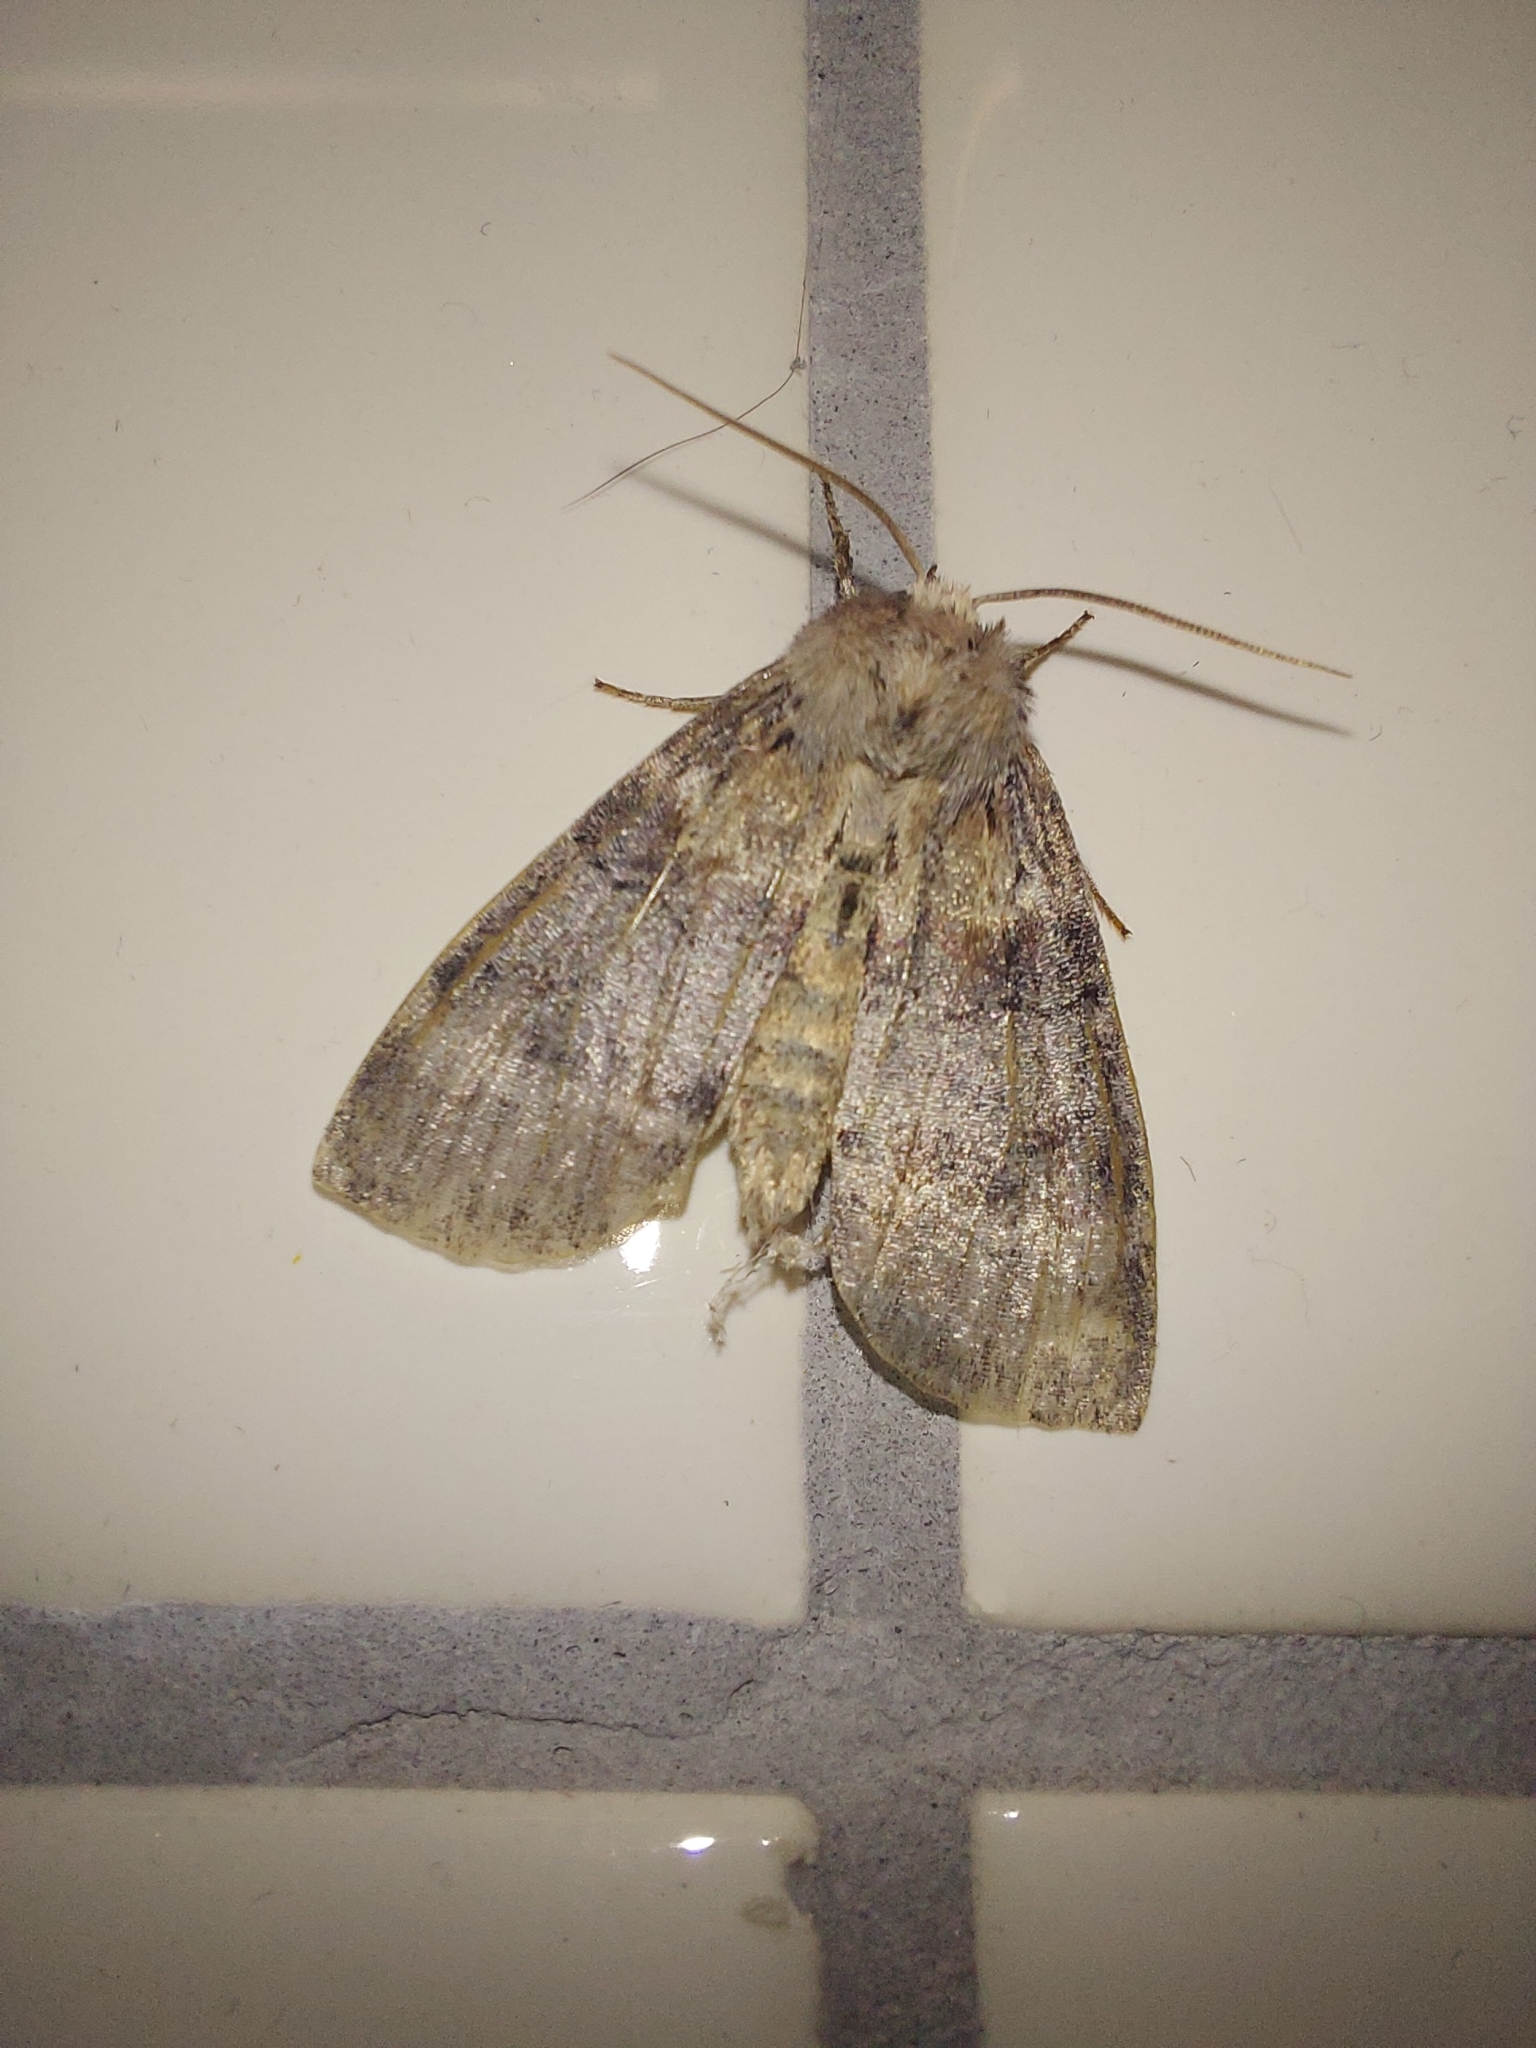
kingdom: Animalia
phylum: Arthropoda
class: Insecta
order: Lepidoptera
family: Drepanidae
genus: Cymatophorina
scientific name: Cymatophorina diluta
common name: Oak lutestring
